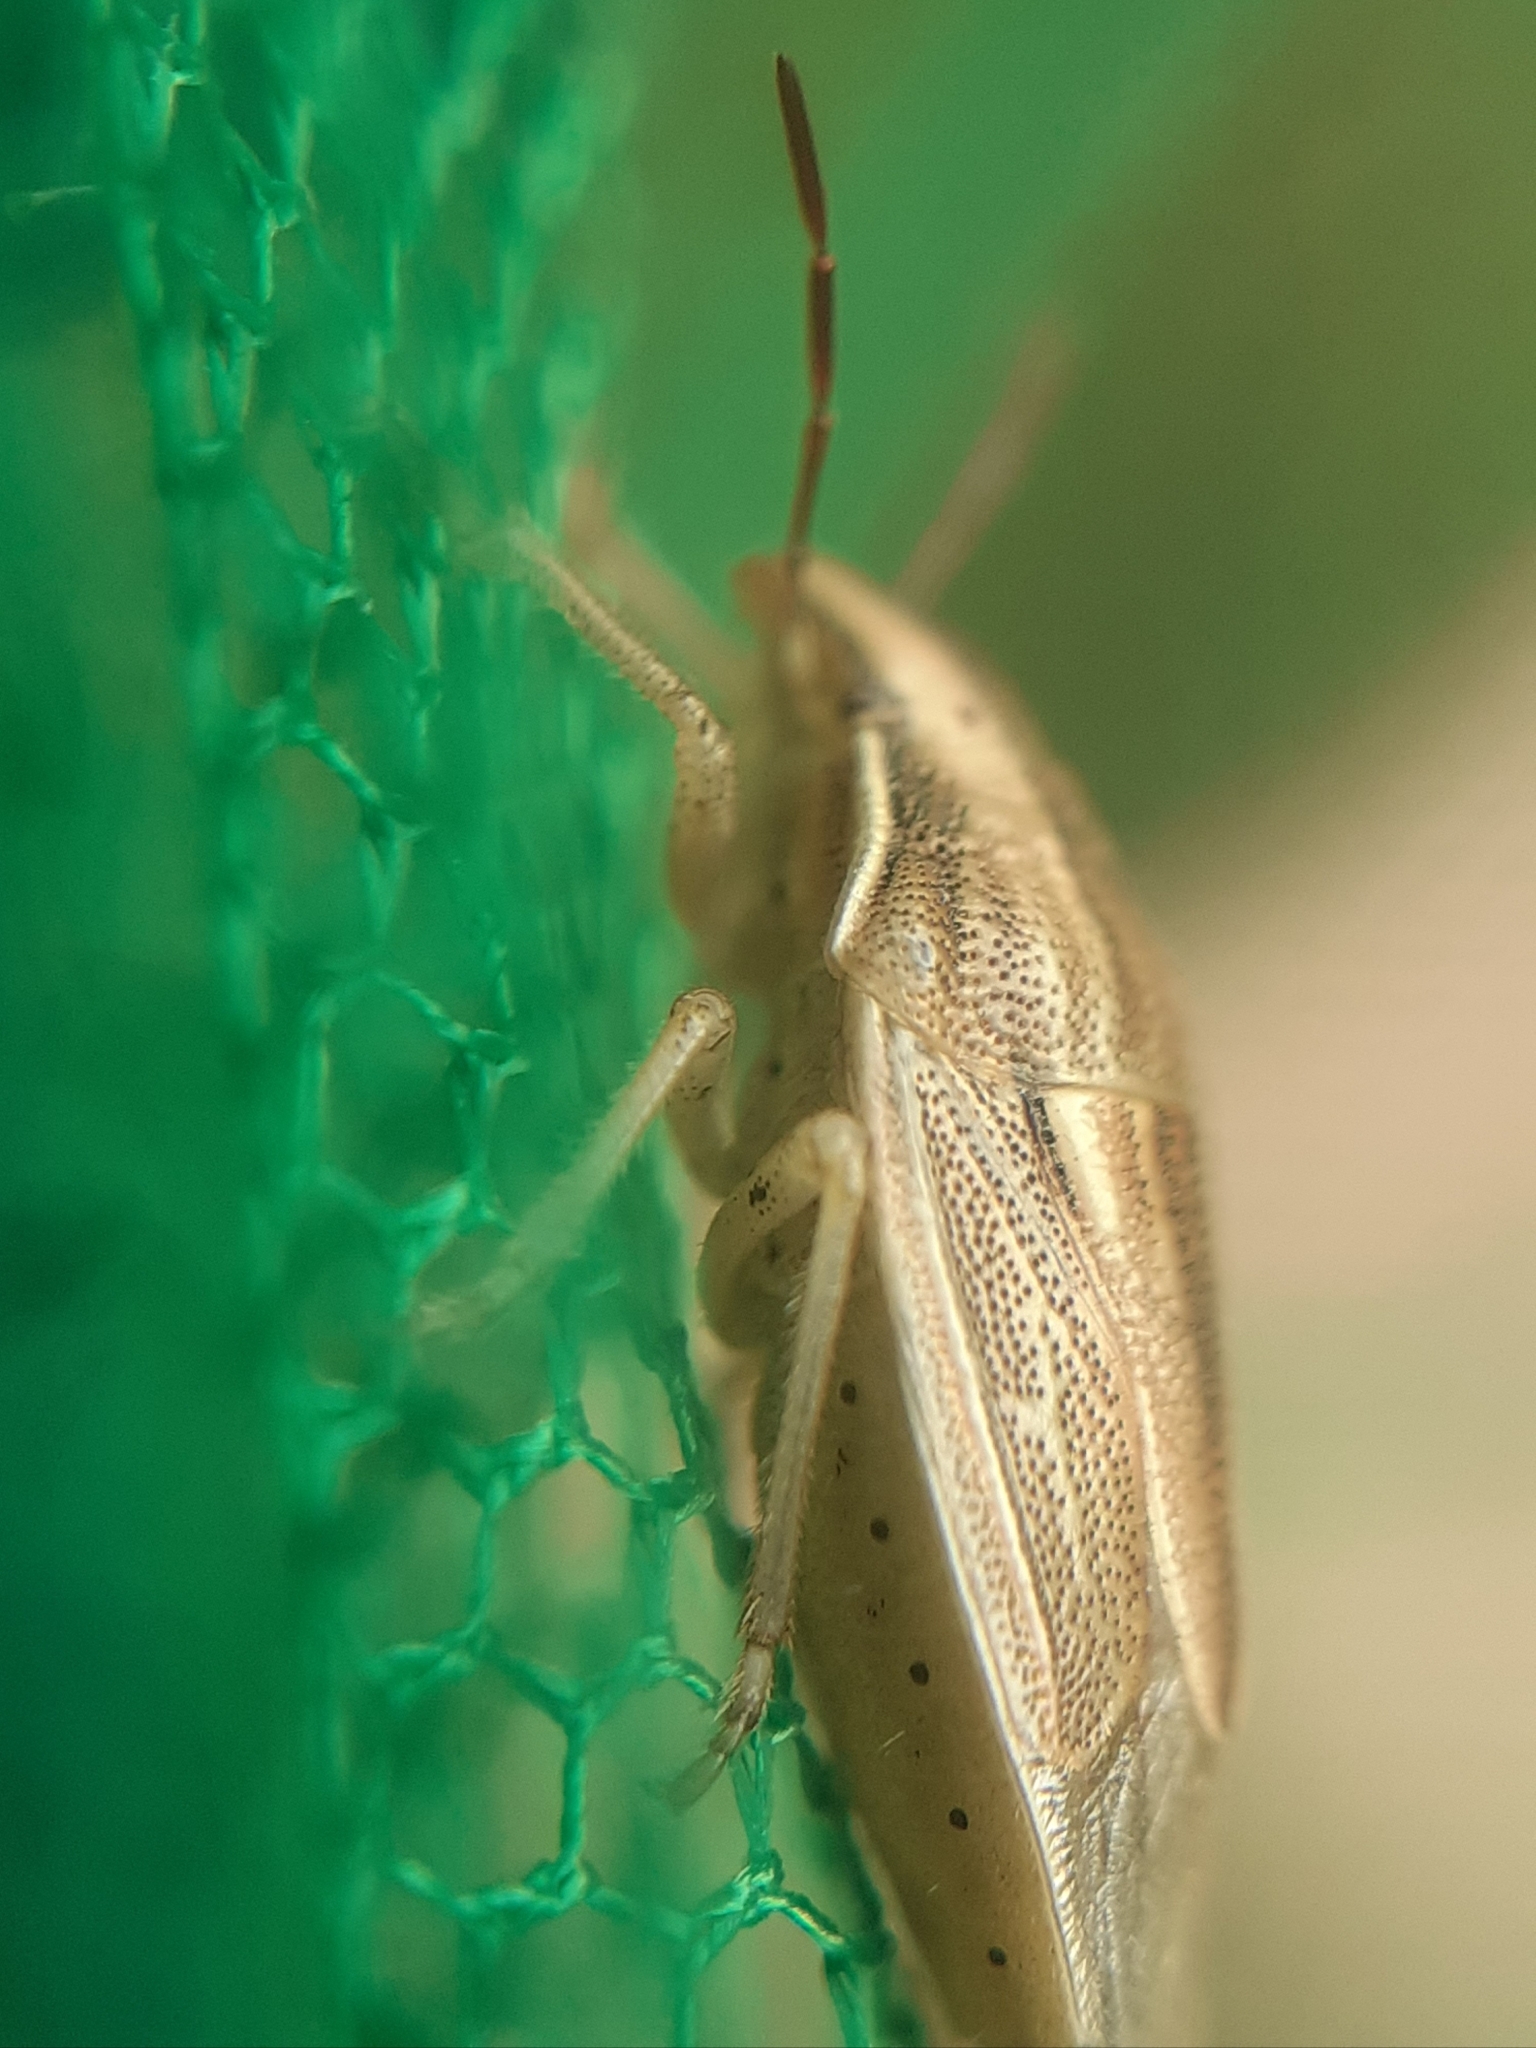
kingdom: Animalia
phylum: Arthropoda
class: Insecta
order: Hemiptera
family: Pentatomidae
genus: Aelia
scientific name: Aelia acuminata
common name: Bishop's mitre
